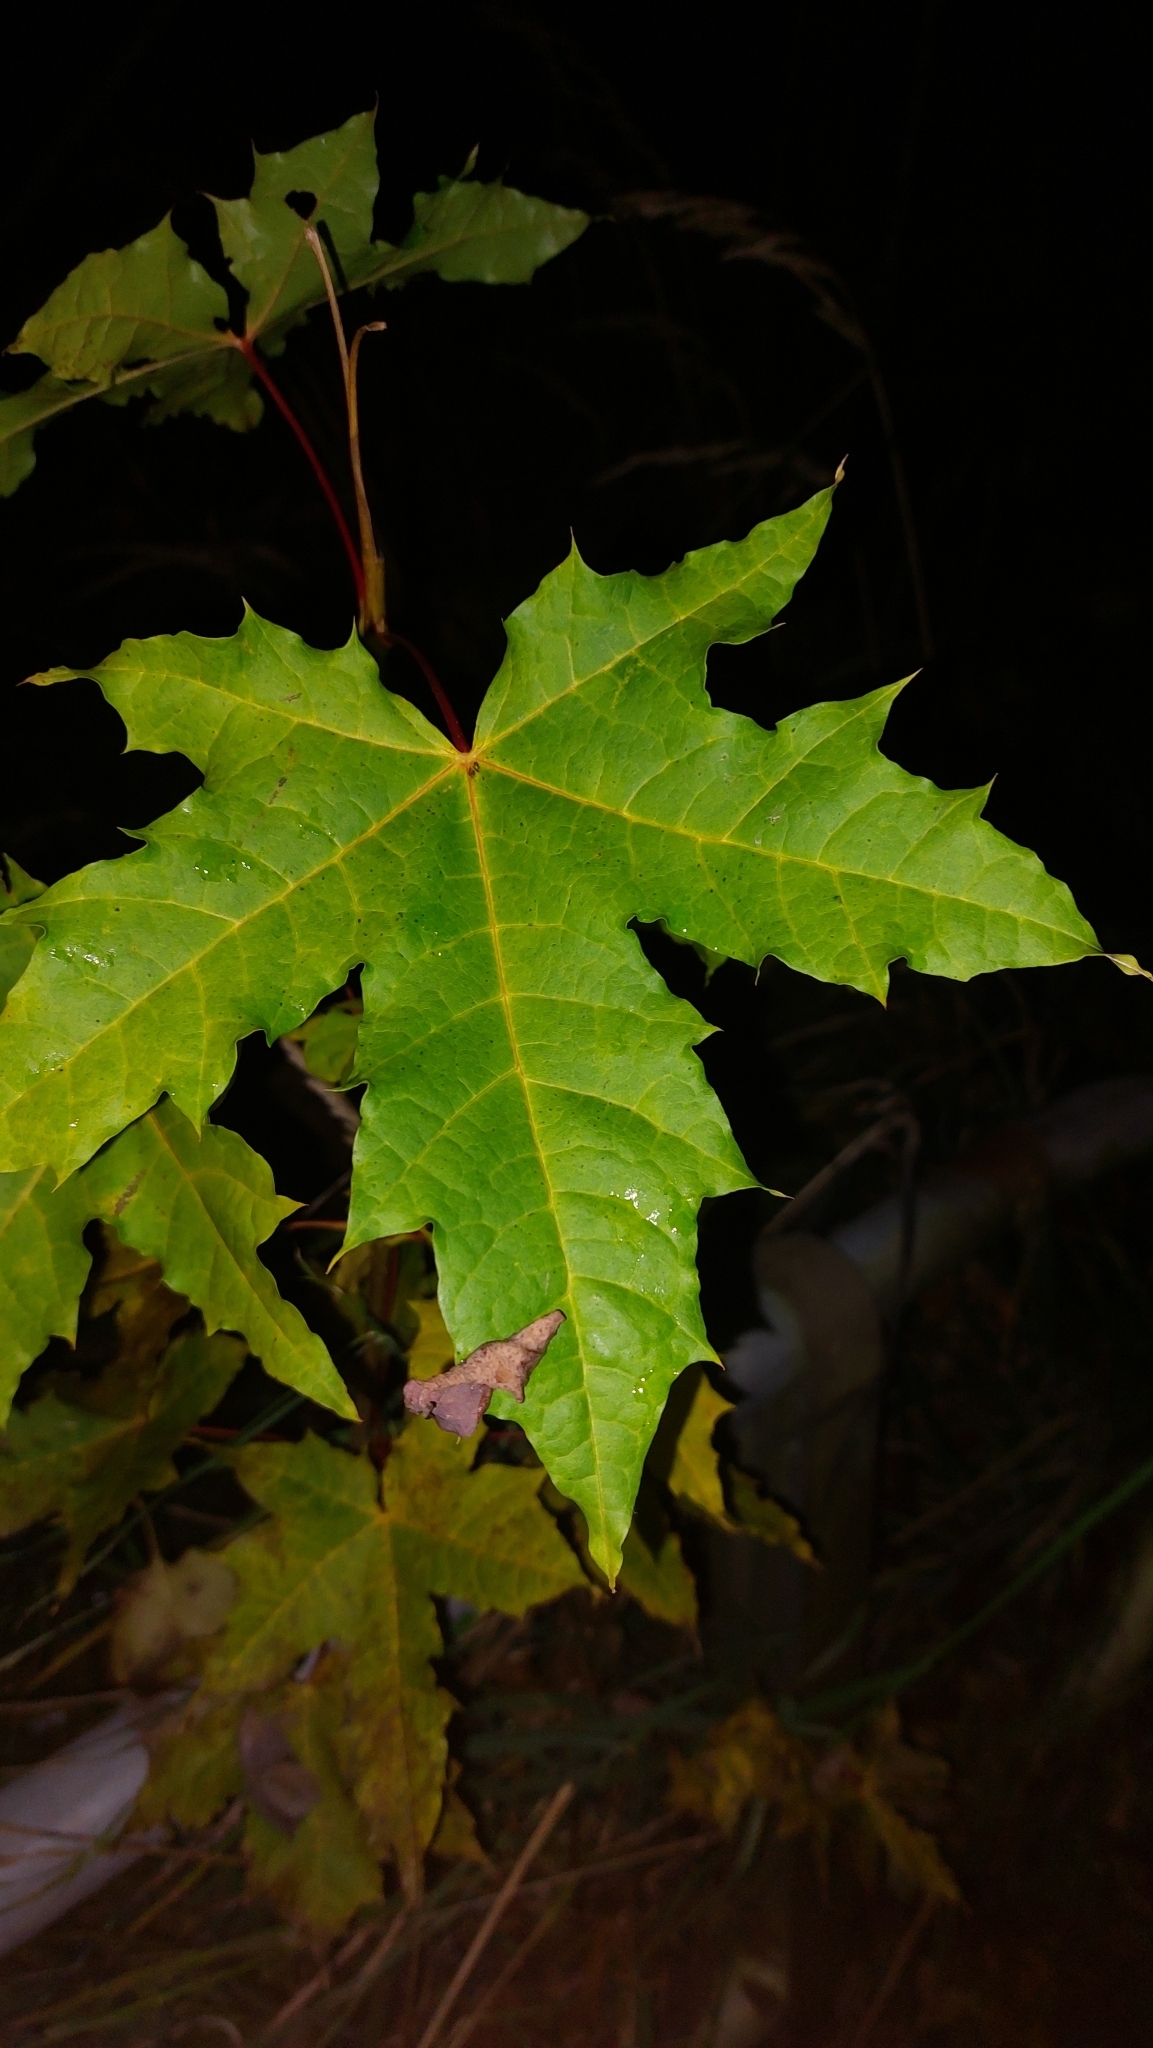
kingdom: Plantae
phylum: Tracheophyta
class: Magnoliopsida
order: Sapindales
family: Sapindaceae
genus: Acer
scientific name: Acer platanoides
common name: Norway maple
